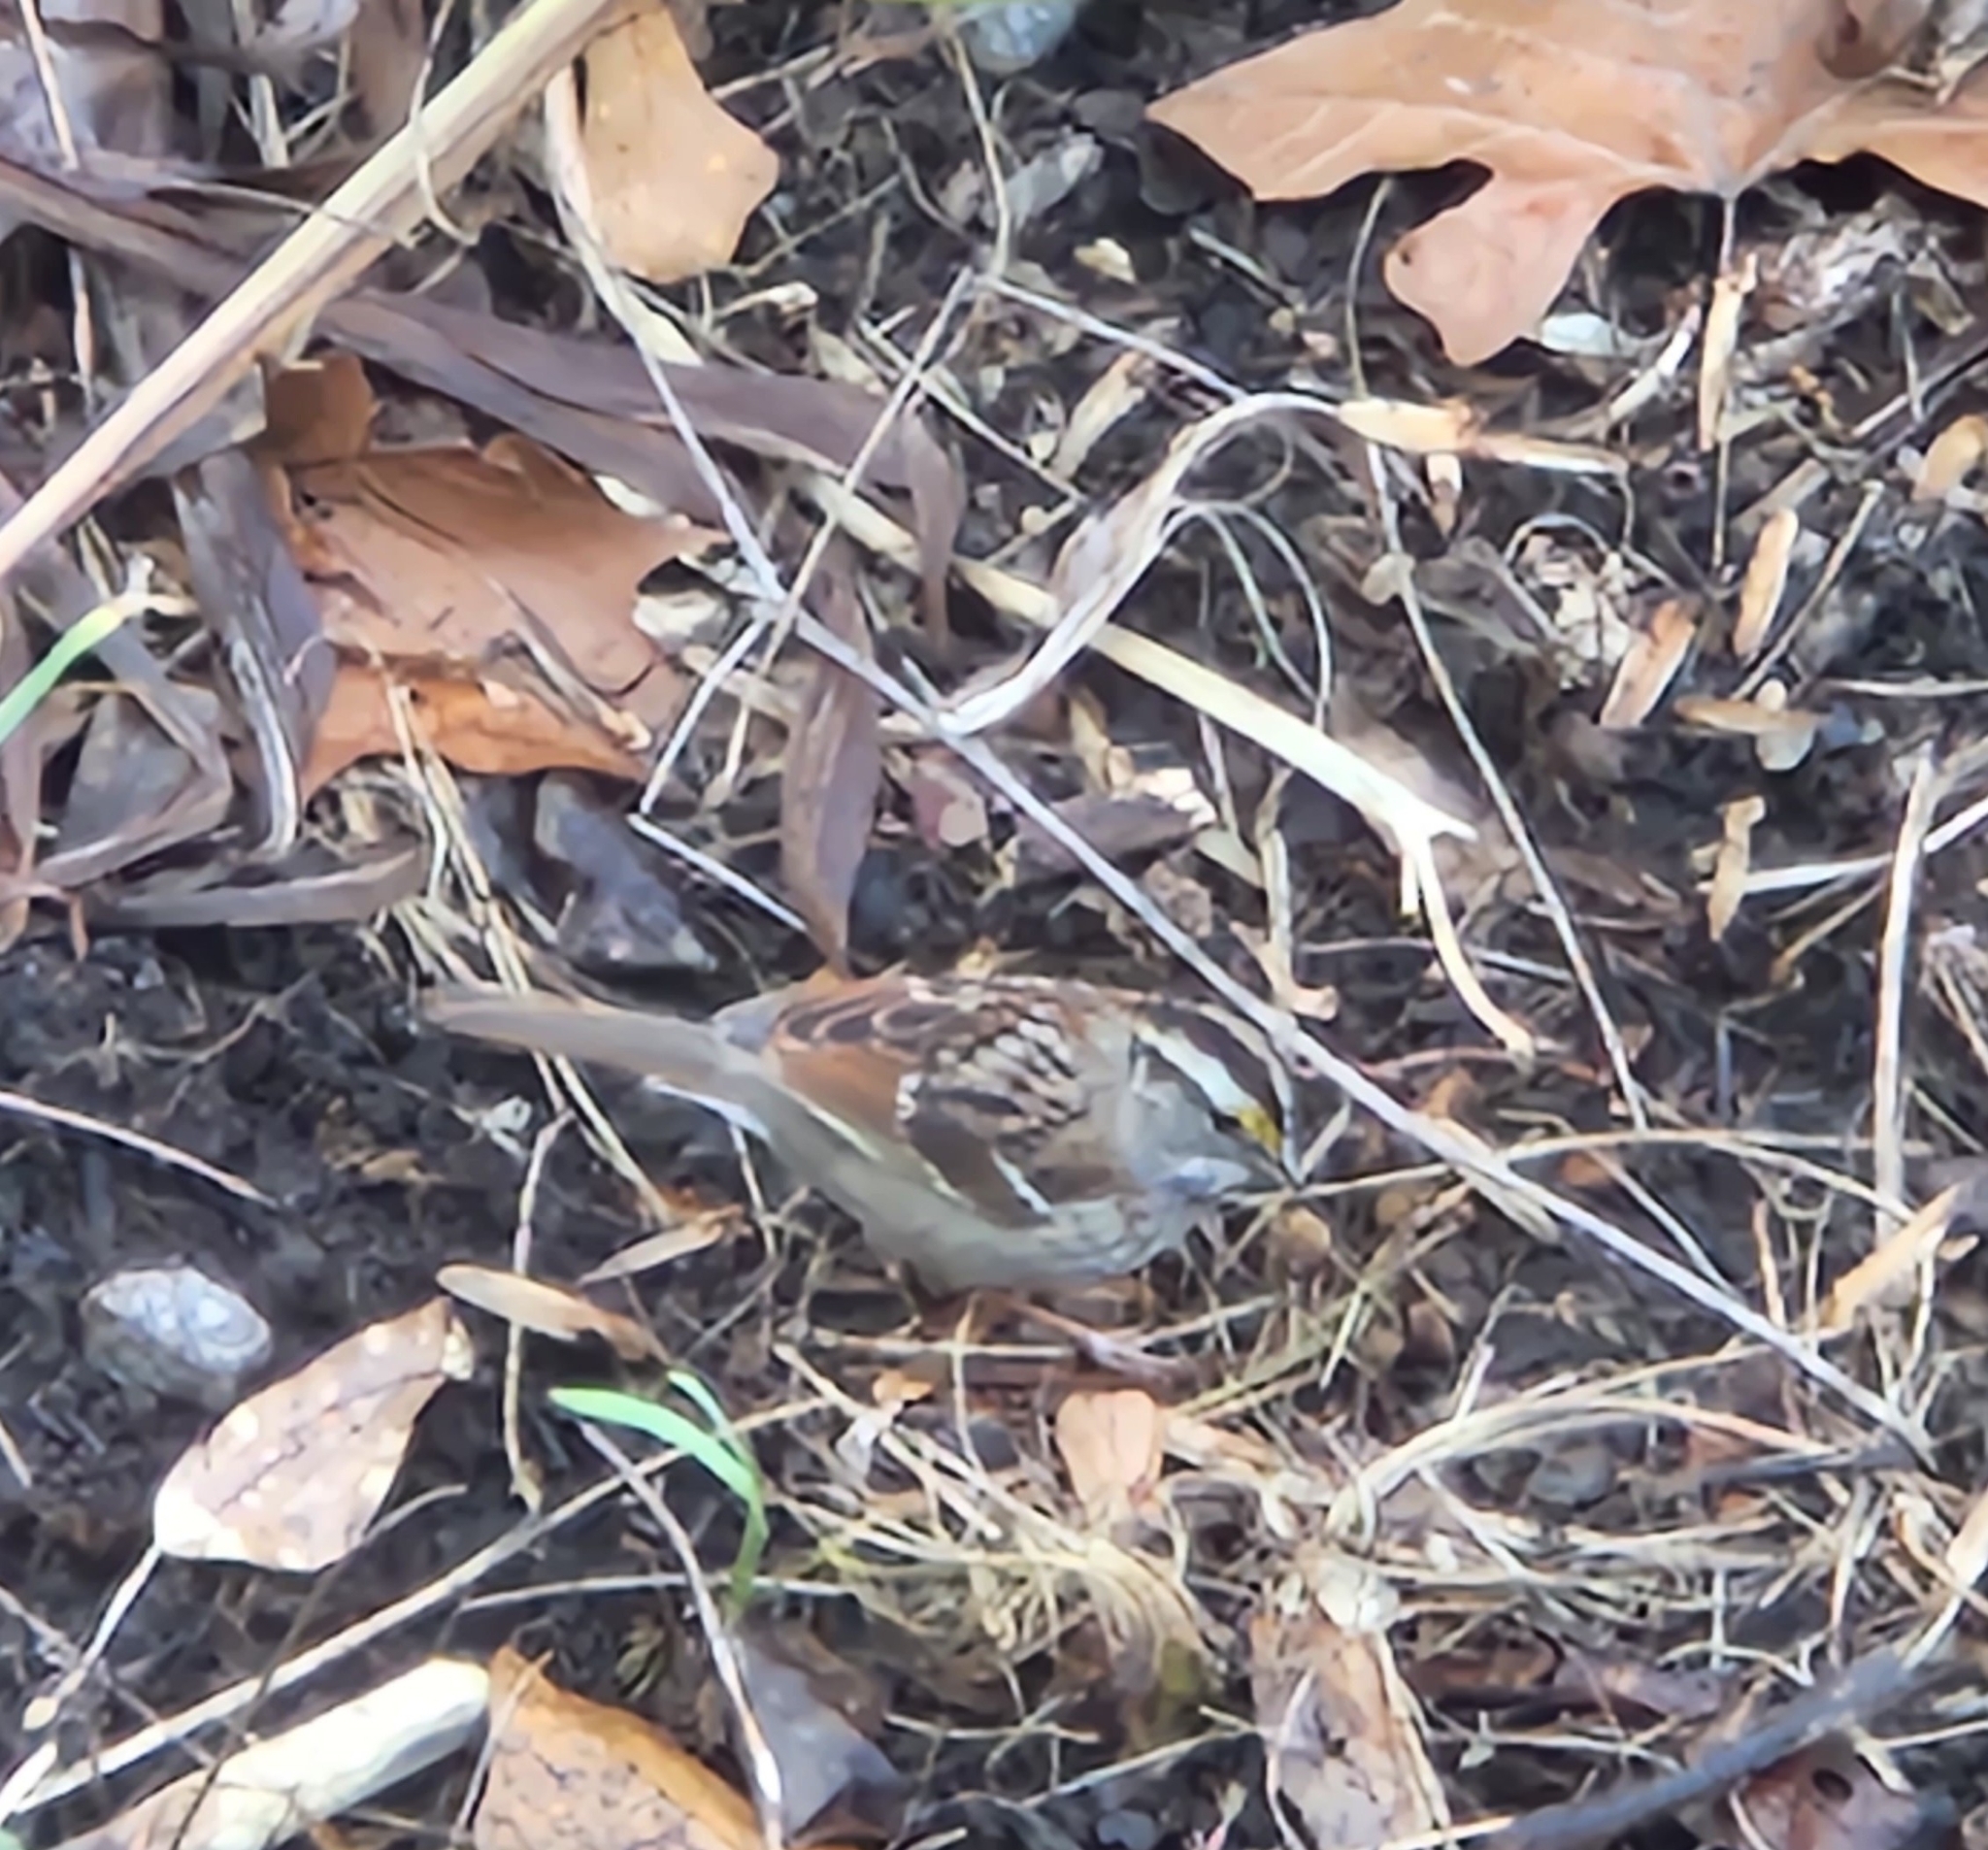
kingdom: Animalia
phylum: Chordata
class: Aves
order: Passeriformes
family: Passerellidae
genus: Zonotrichia
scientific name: Zonotrichia albicollis
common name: White-throated sparrow
